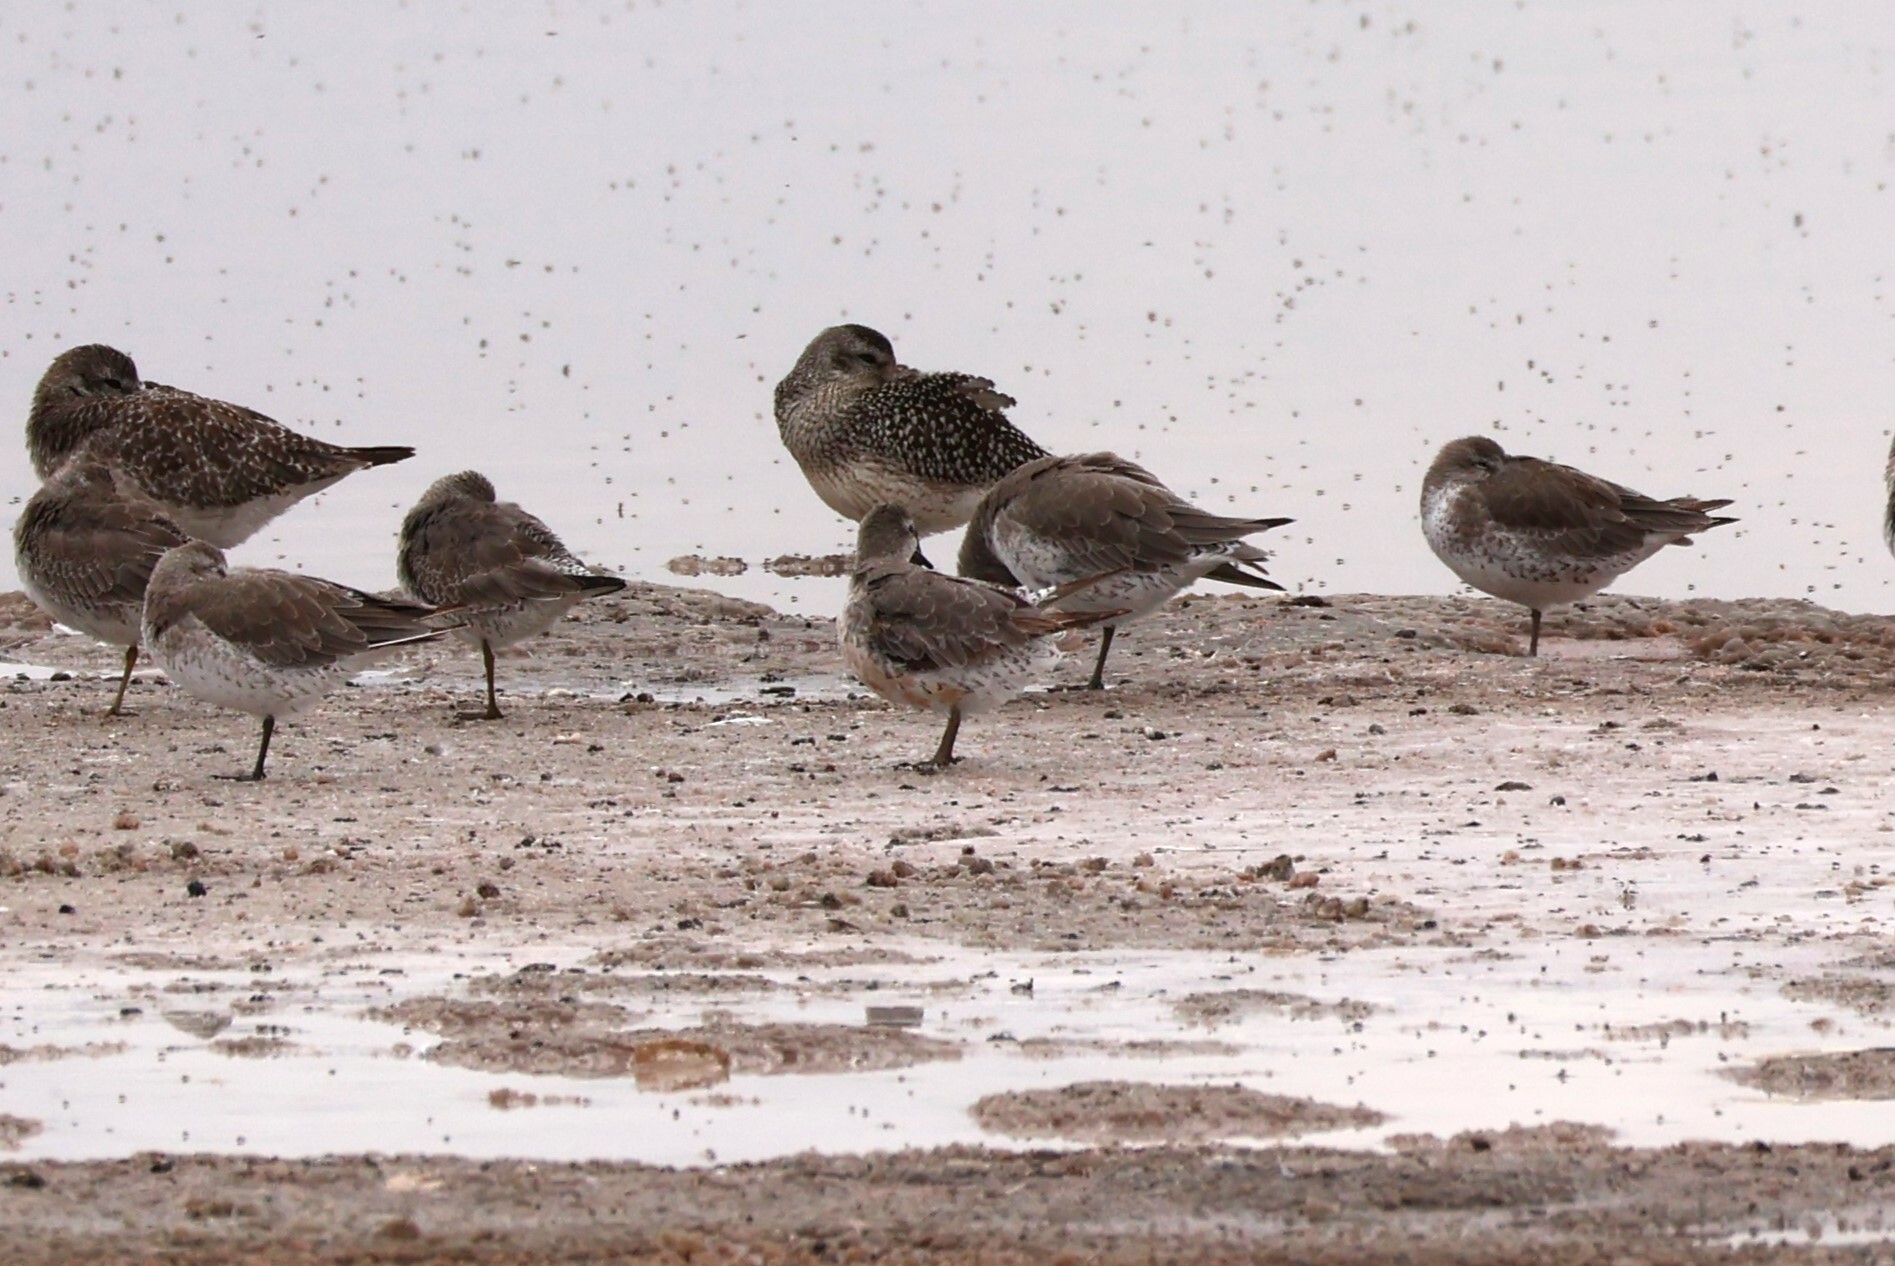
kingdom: Animalia
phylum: Chordata
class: Aves
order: Charadriiformes
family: Scolopacidae
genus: Calidris
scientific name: Calidris canutus
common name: Red knot
